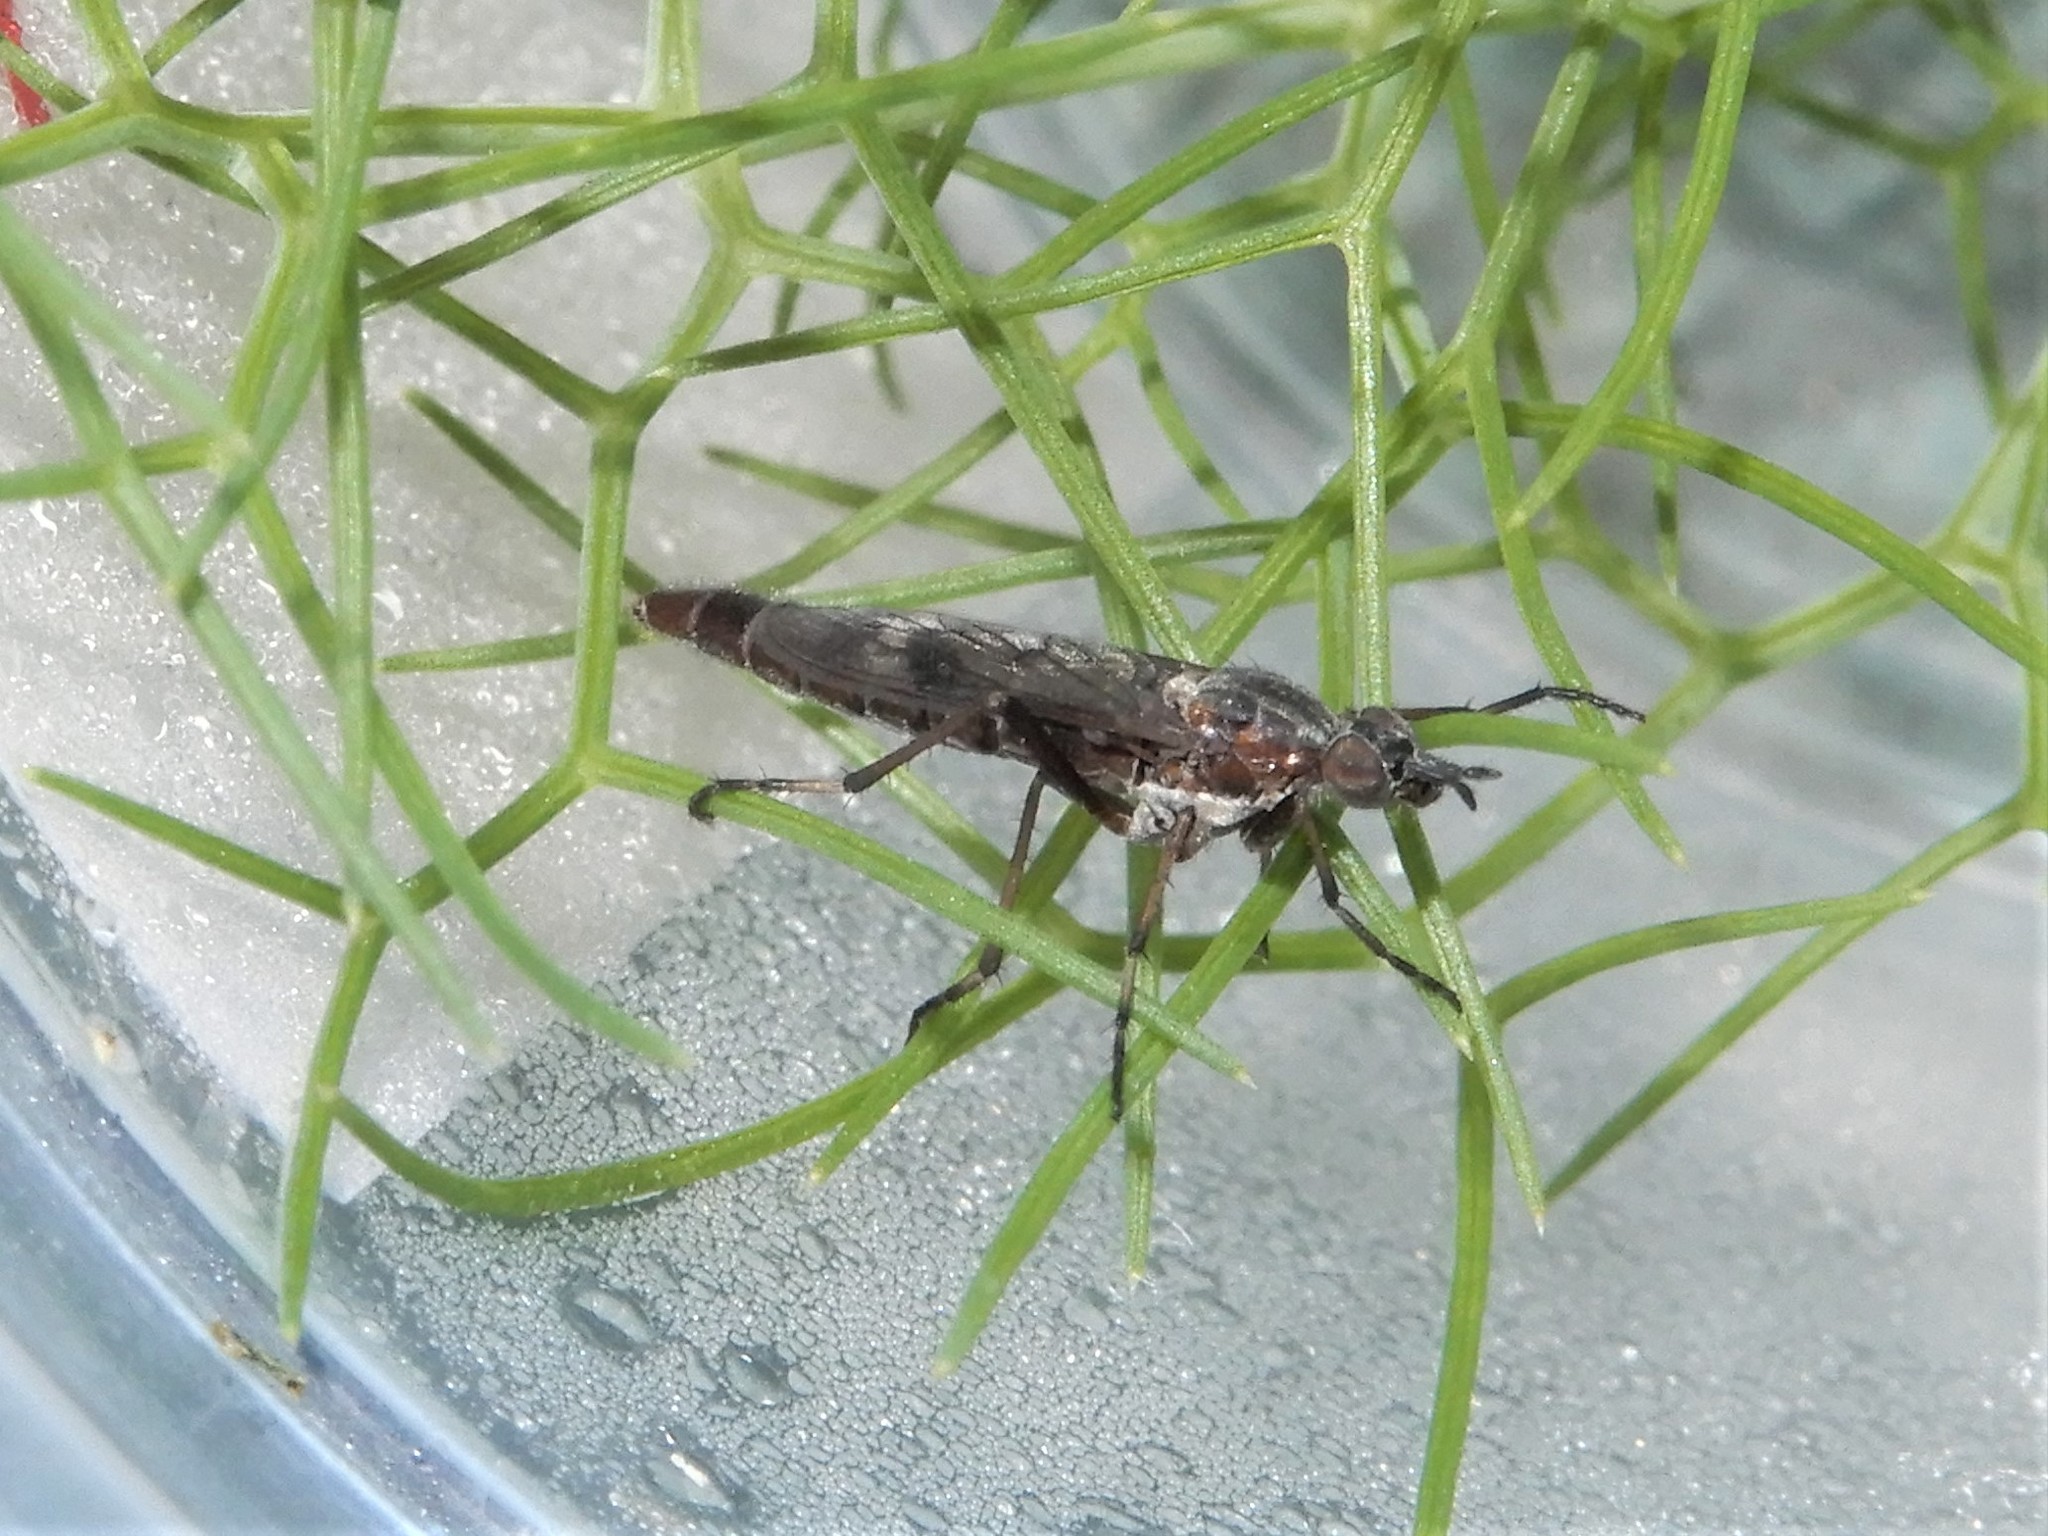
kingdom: Animalia
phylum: Arthropoda
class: Insecta
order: Diptera
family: Therevidae
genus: Anabarhynchus
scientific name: Anabarhynchus cupreus
